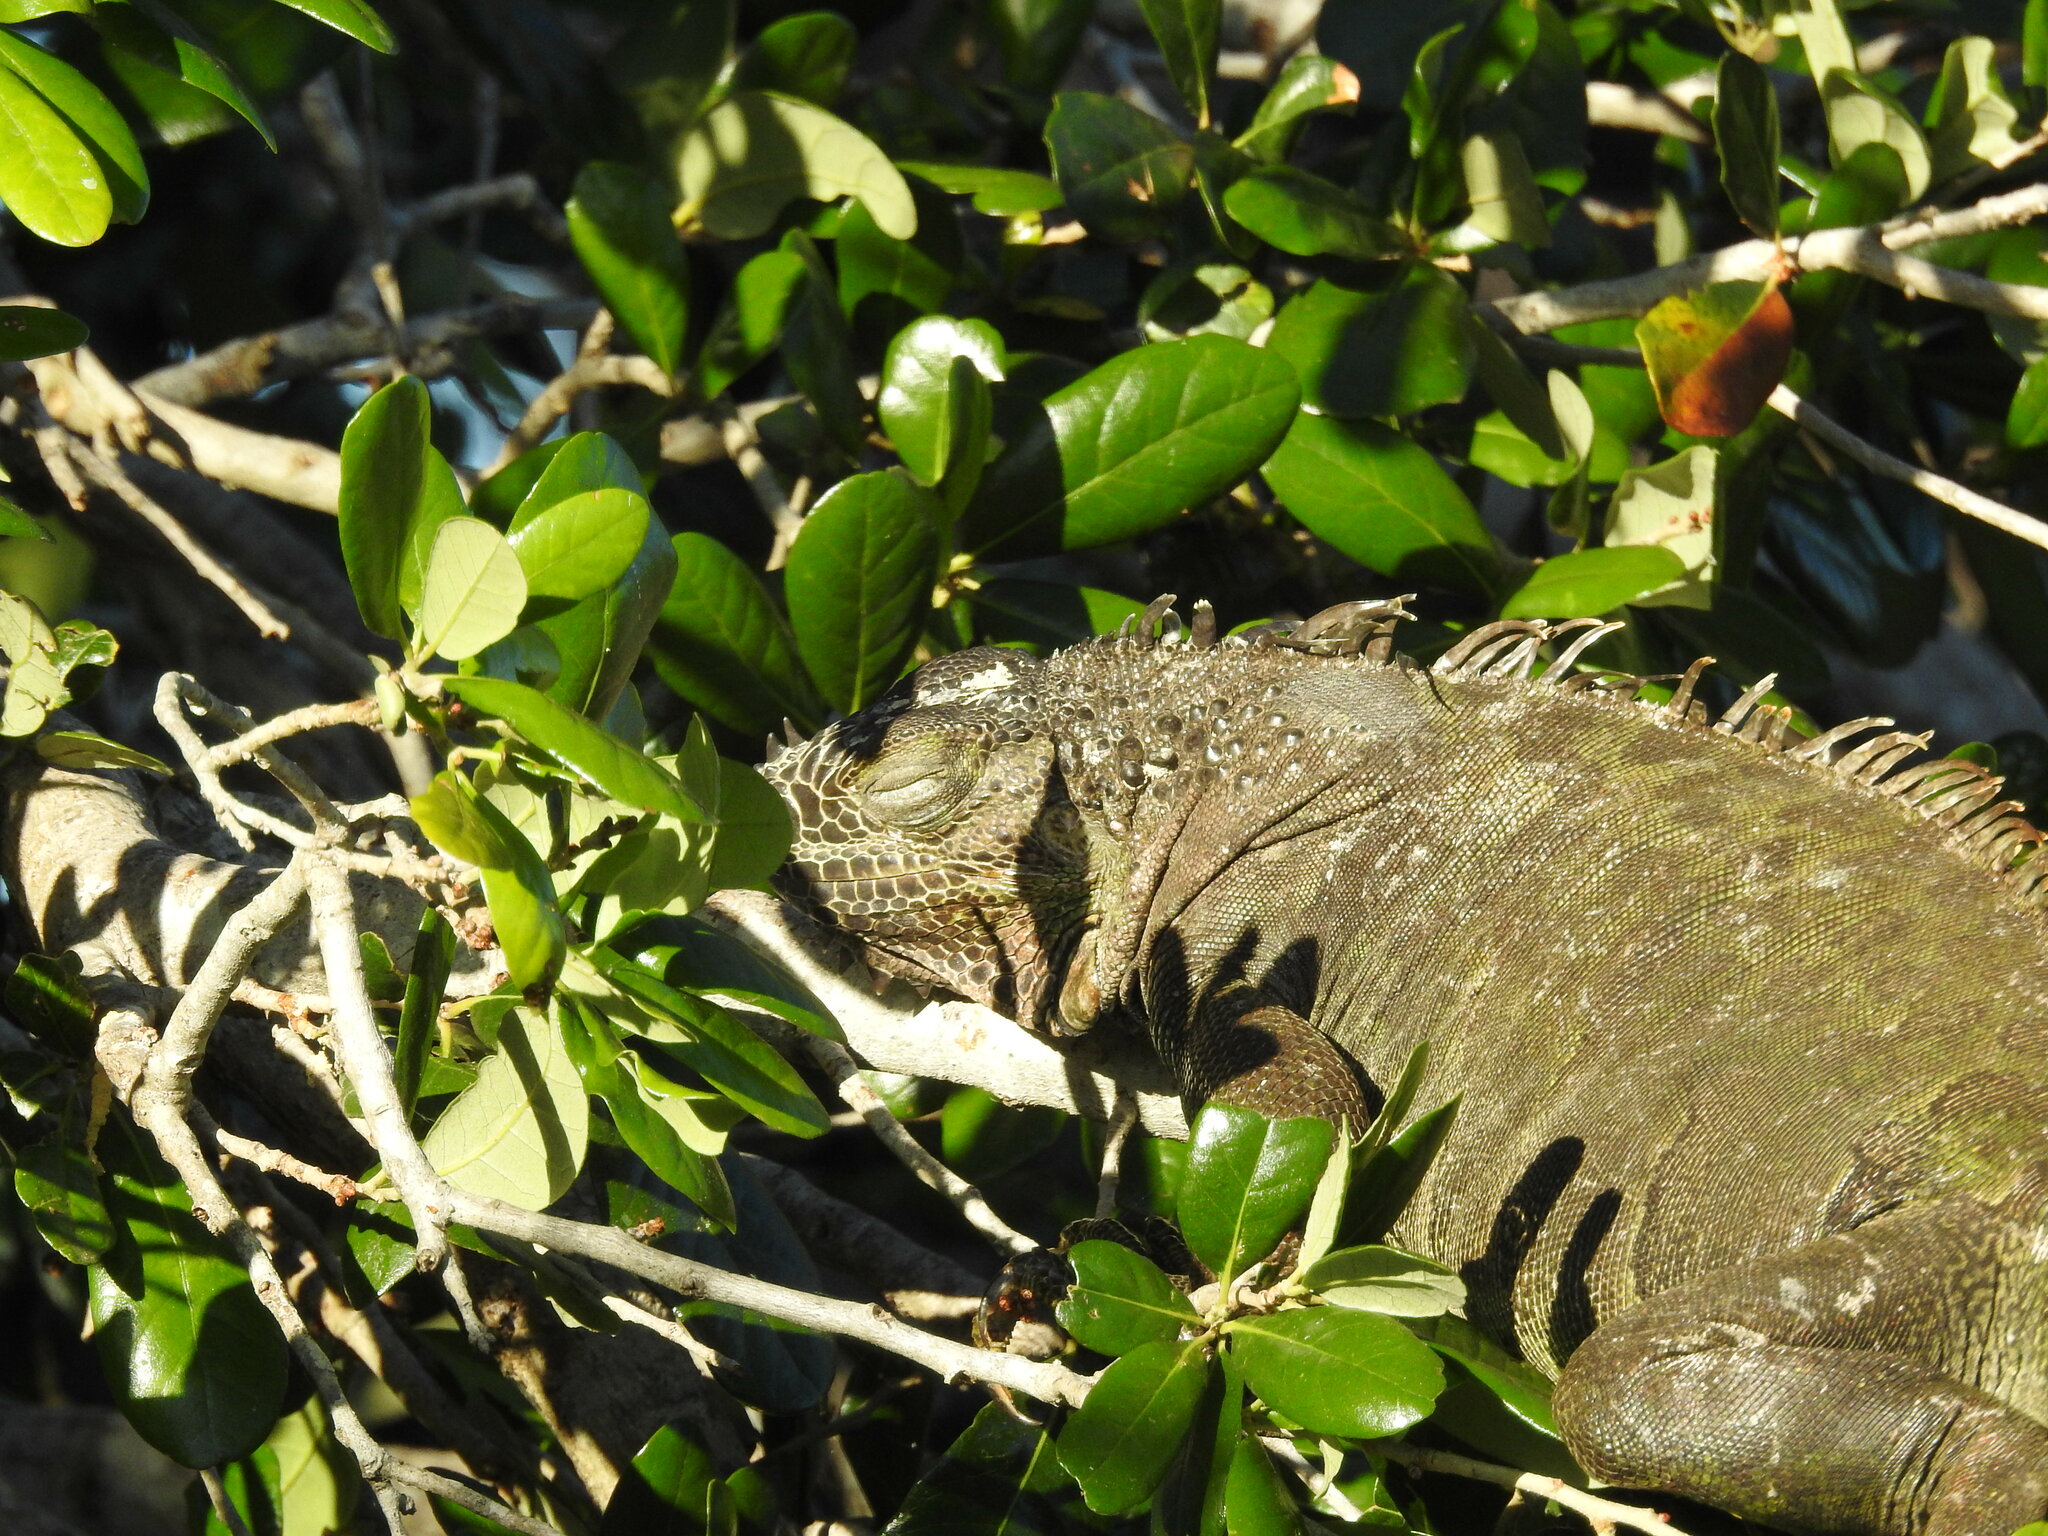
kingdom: Animalia
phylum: Chordata
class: Squamata
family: Iguanidae
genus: Iguana
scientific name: Iguana iguana
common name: Green iguana
